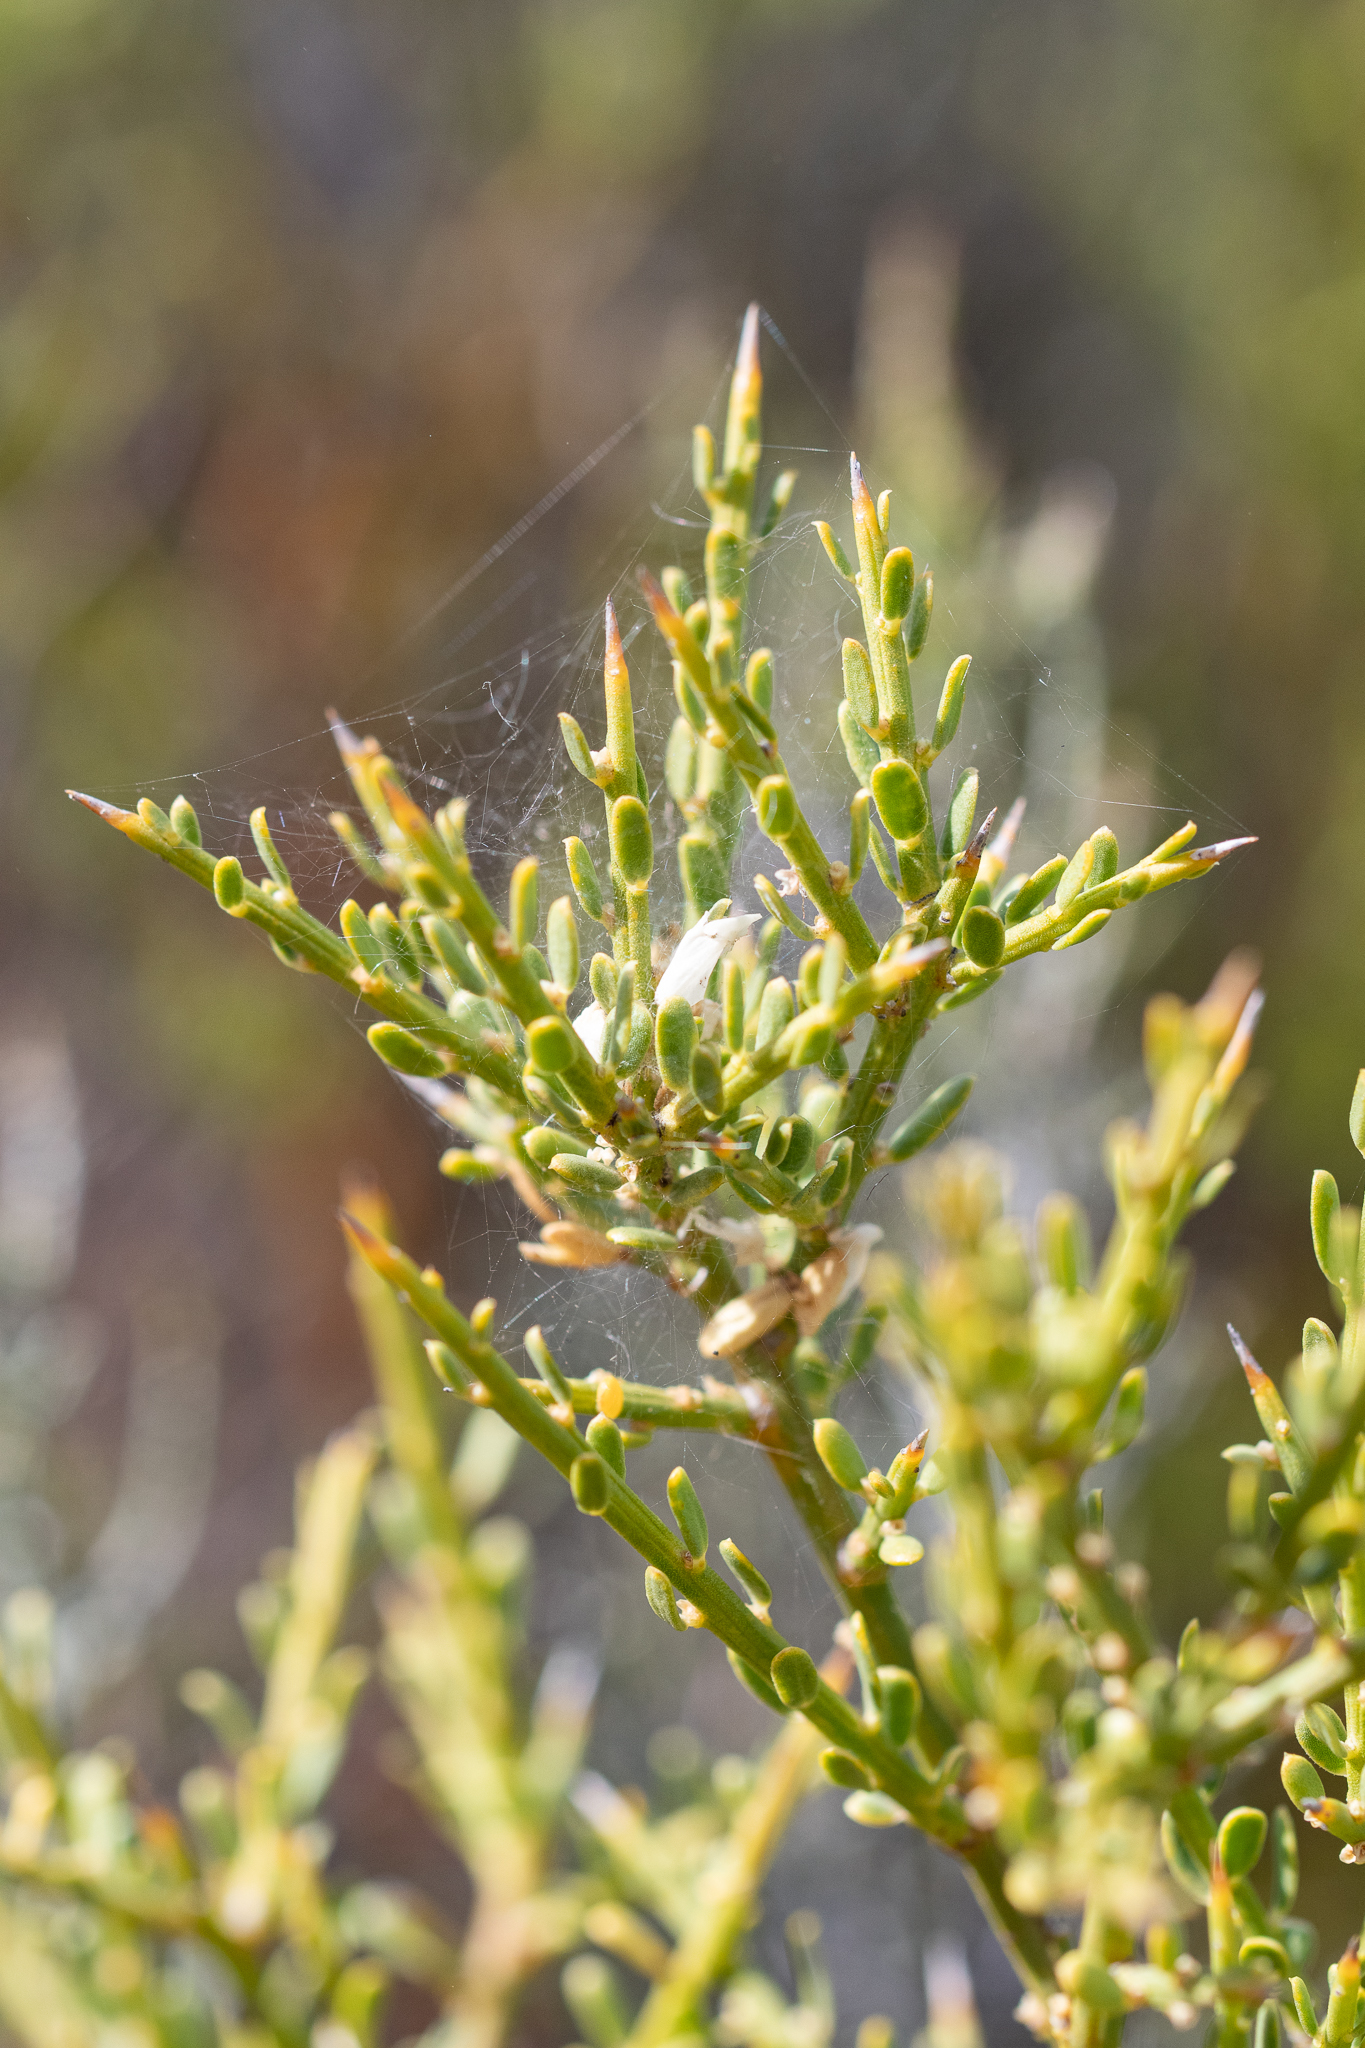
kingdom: Plantae
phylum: Tracheophyta
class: Magnoliopsida
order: Fabales
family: Polygalaceae
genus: Muraltia
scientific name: Muraltia spinosa
